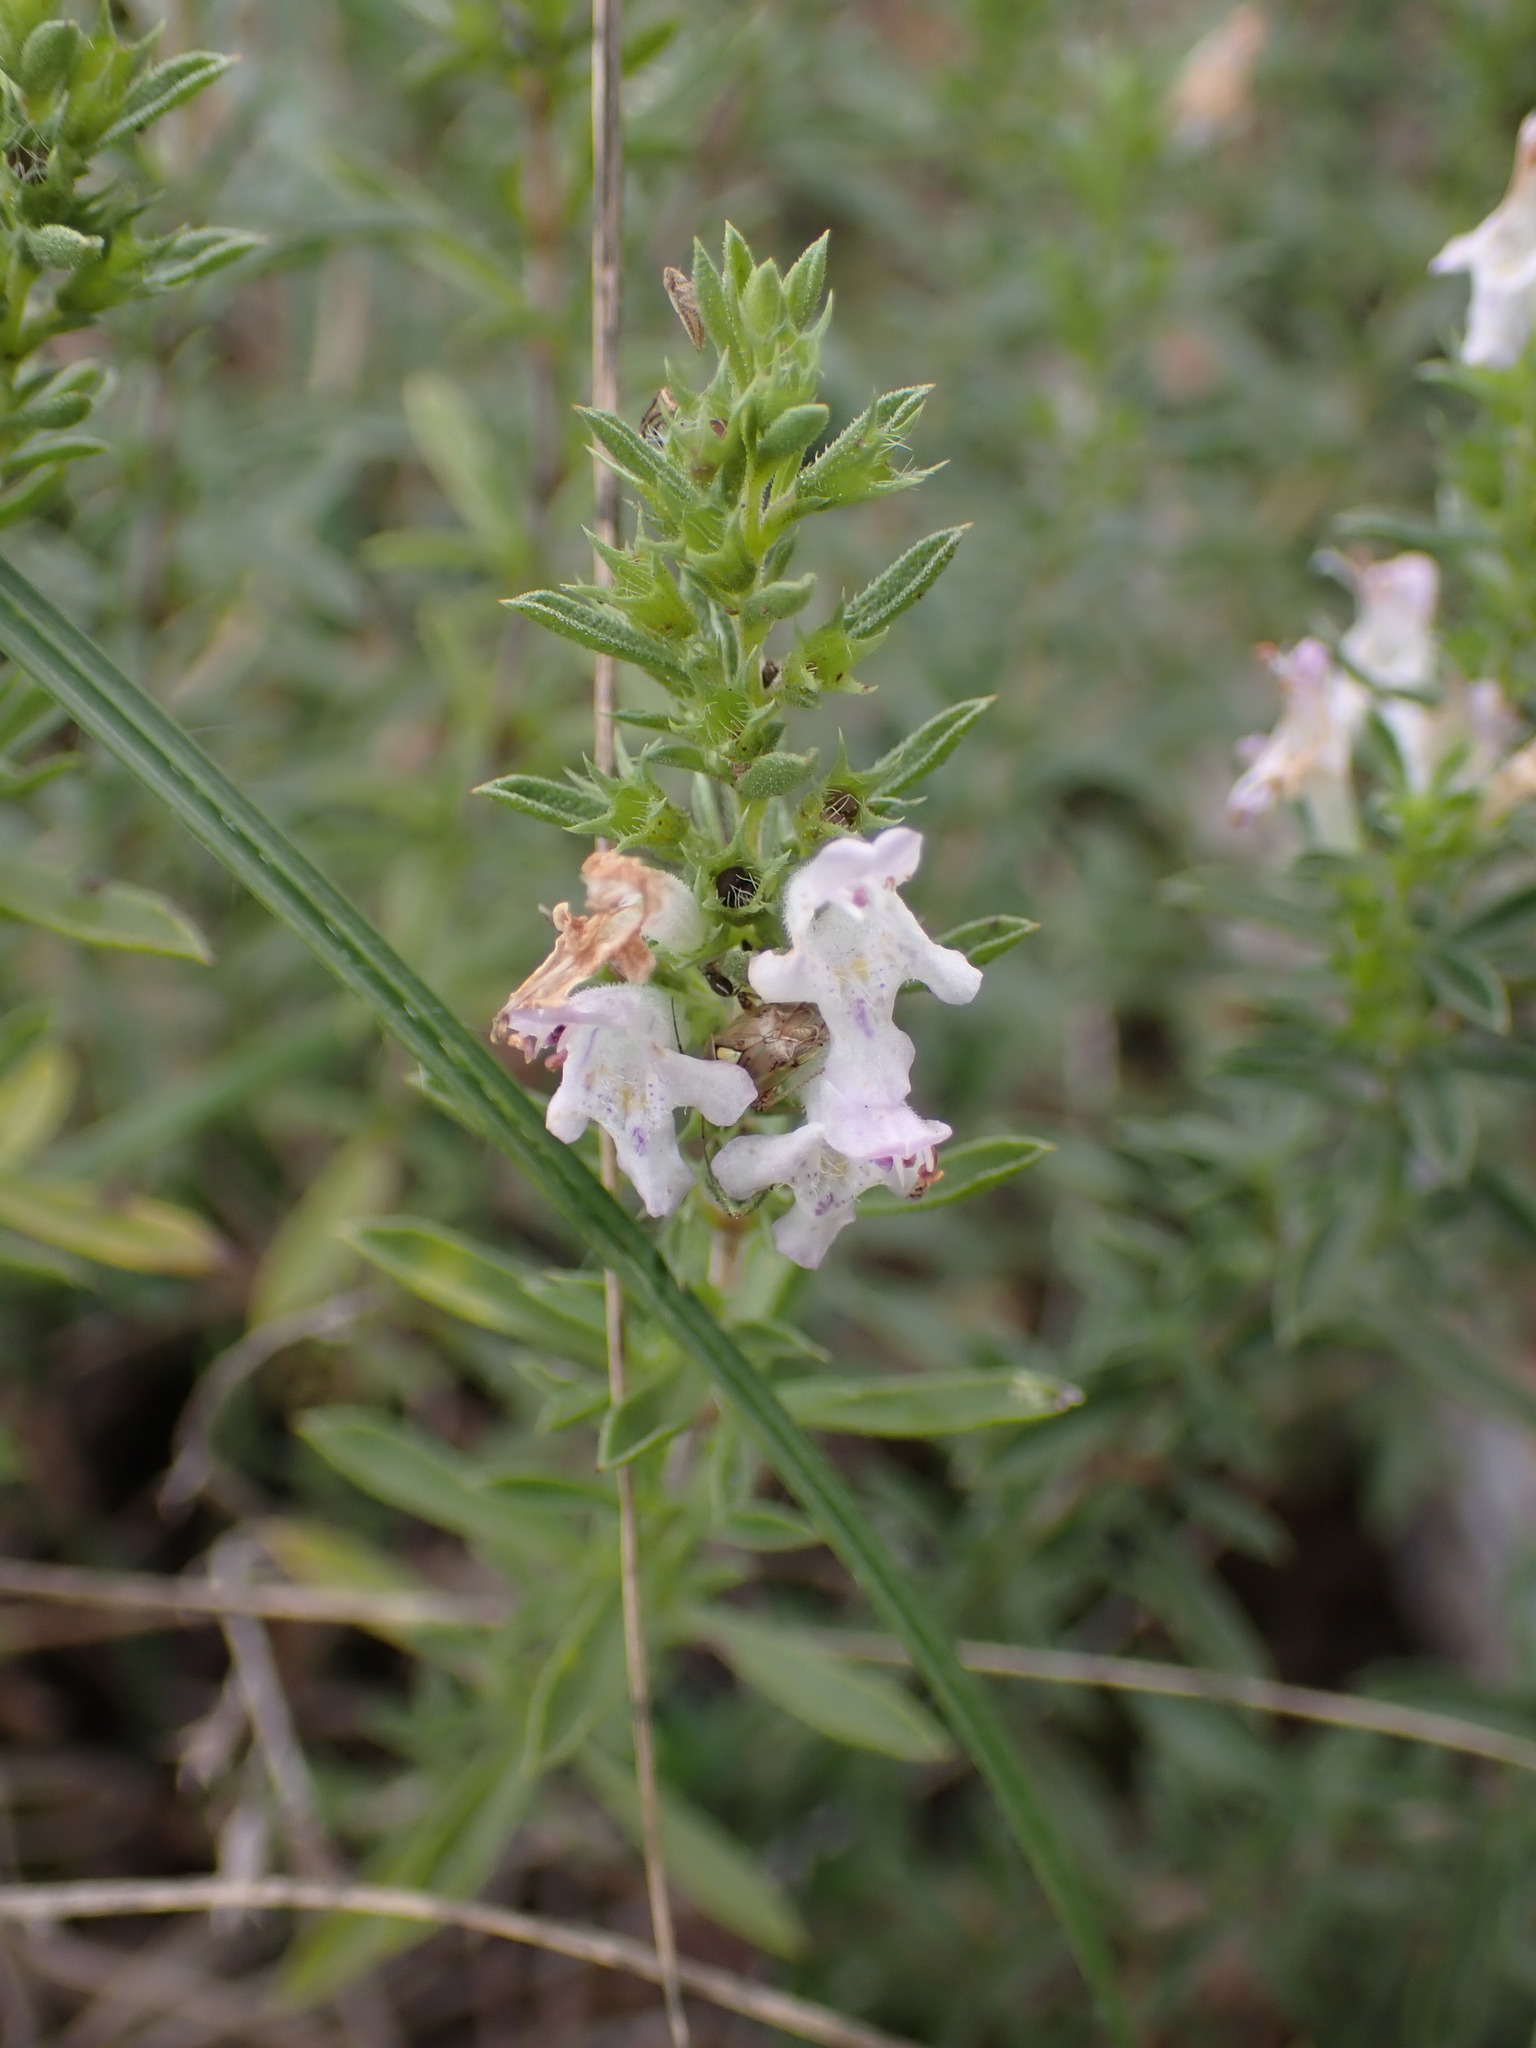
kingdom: Plantae
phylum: Tracheophyta
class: Magnoliopsida
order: Lamiales
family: Lamiaceae
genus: Satureja
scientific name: Satureja montana
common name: Winter savory
